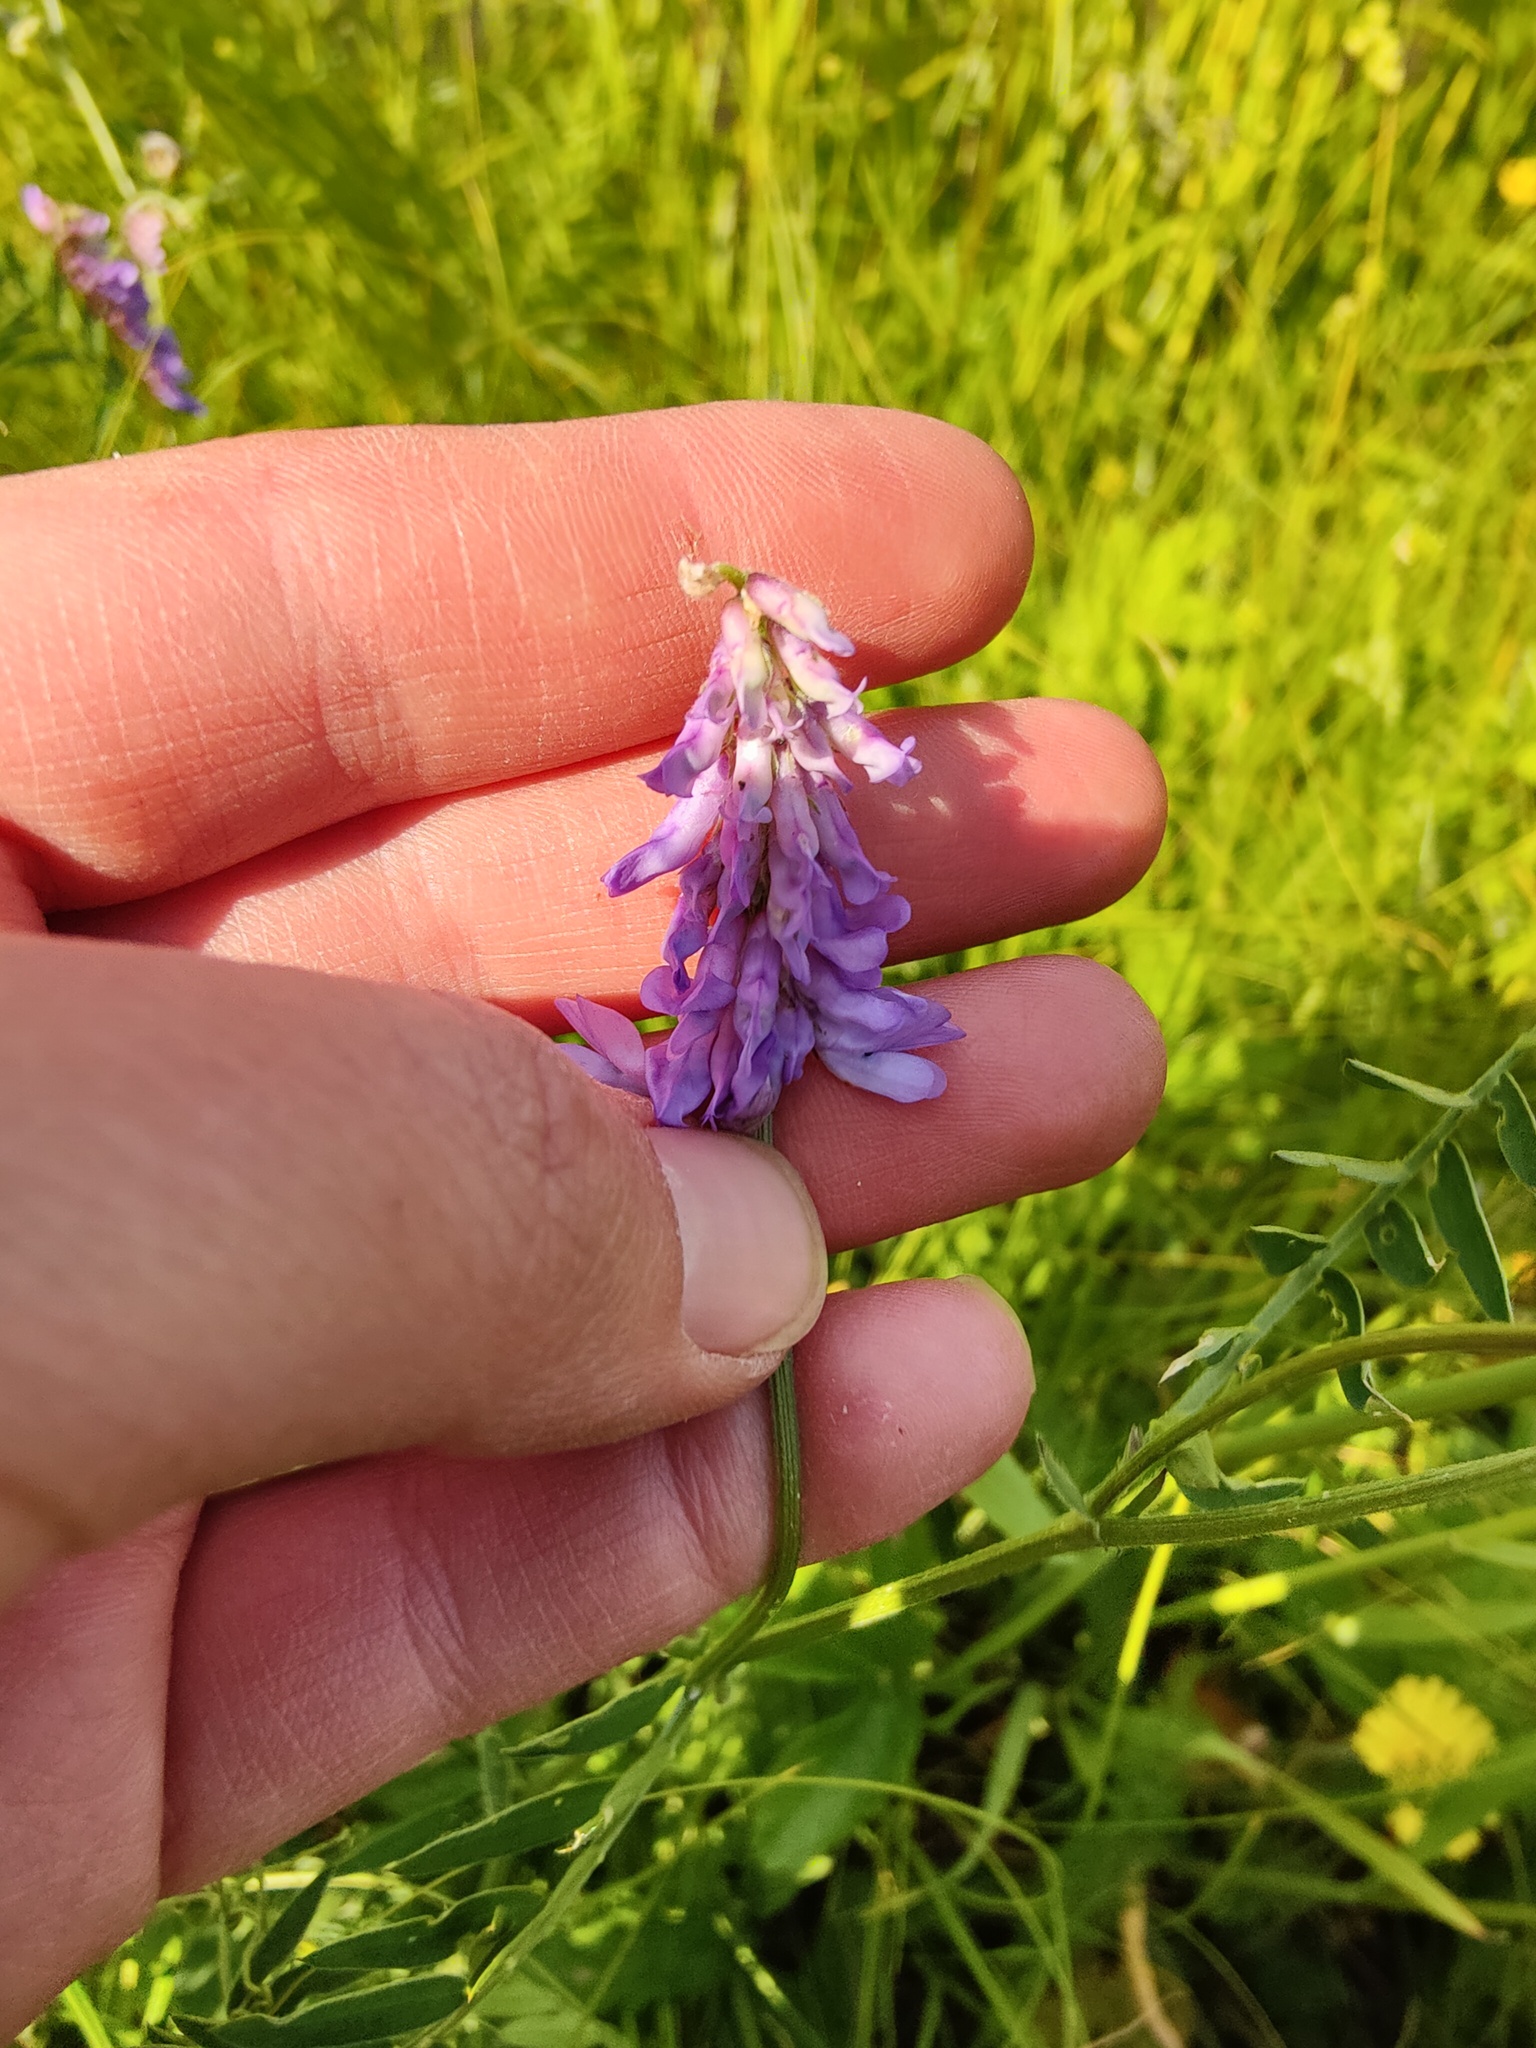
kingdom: Plantae
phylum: Tracheophyta
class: Magnoliopsida
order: Fabales
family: Fabaceae
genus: Vicia
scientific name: Vicia cracca
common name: Bird vetch
